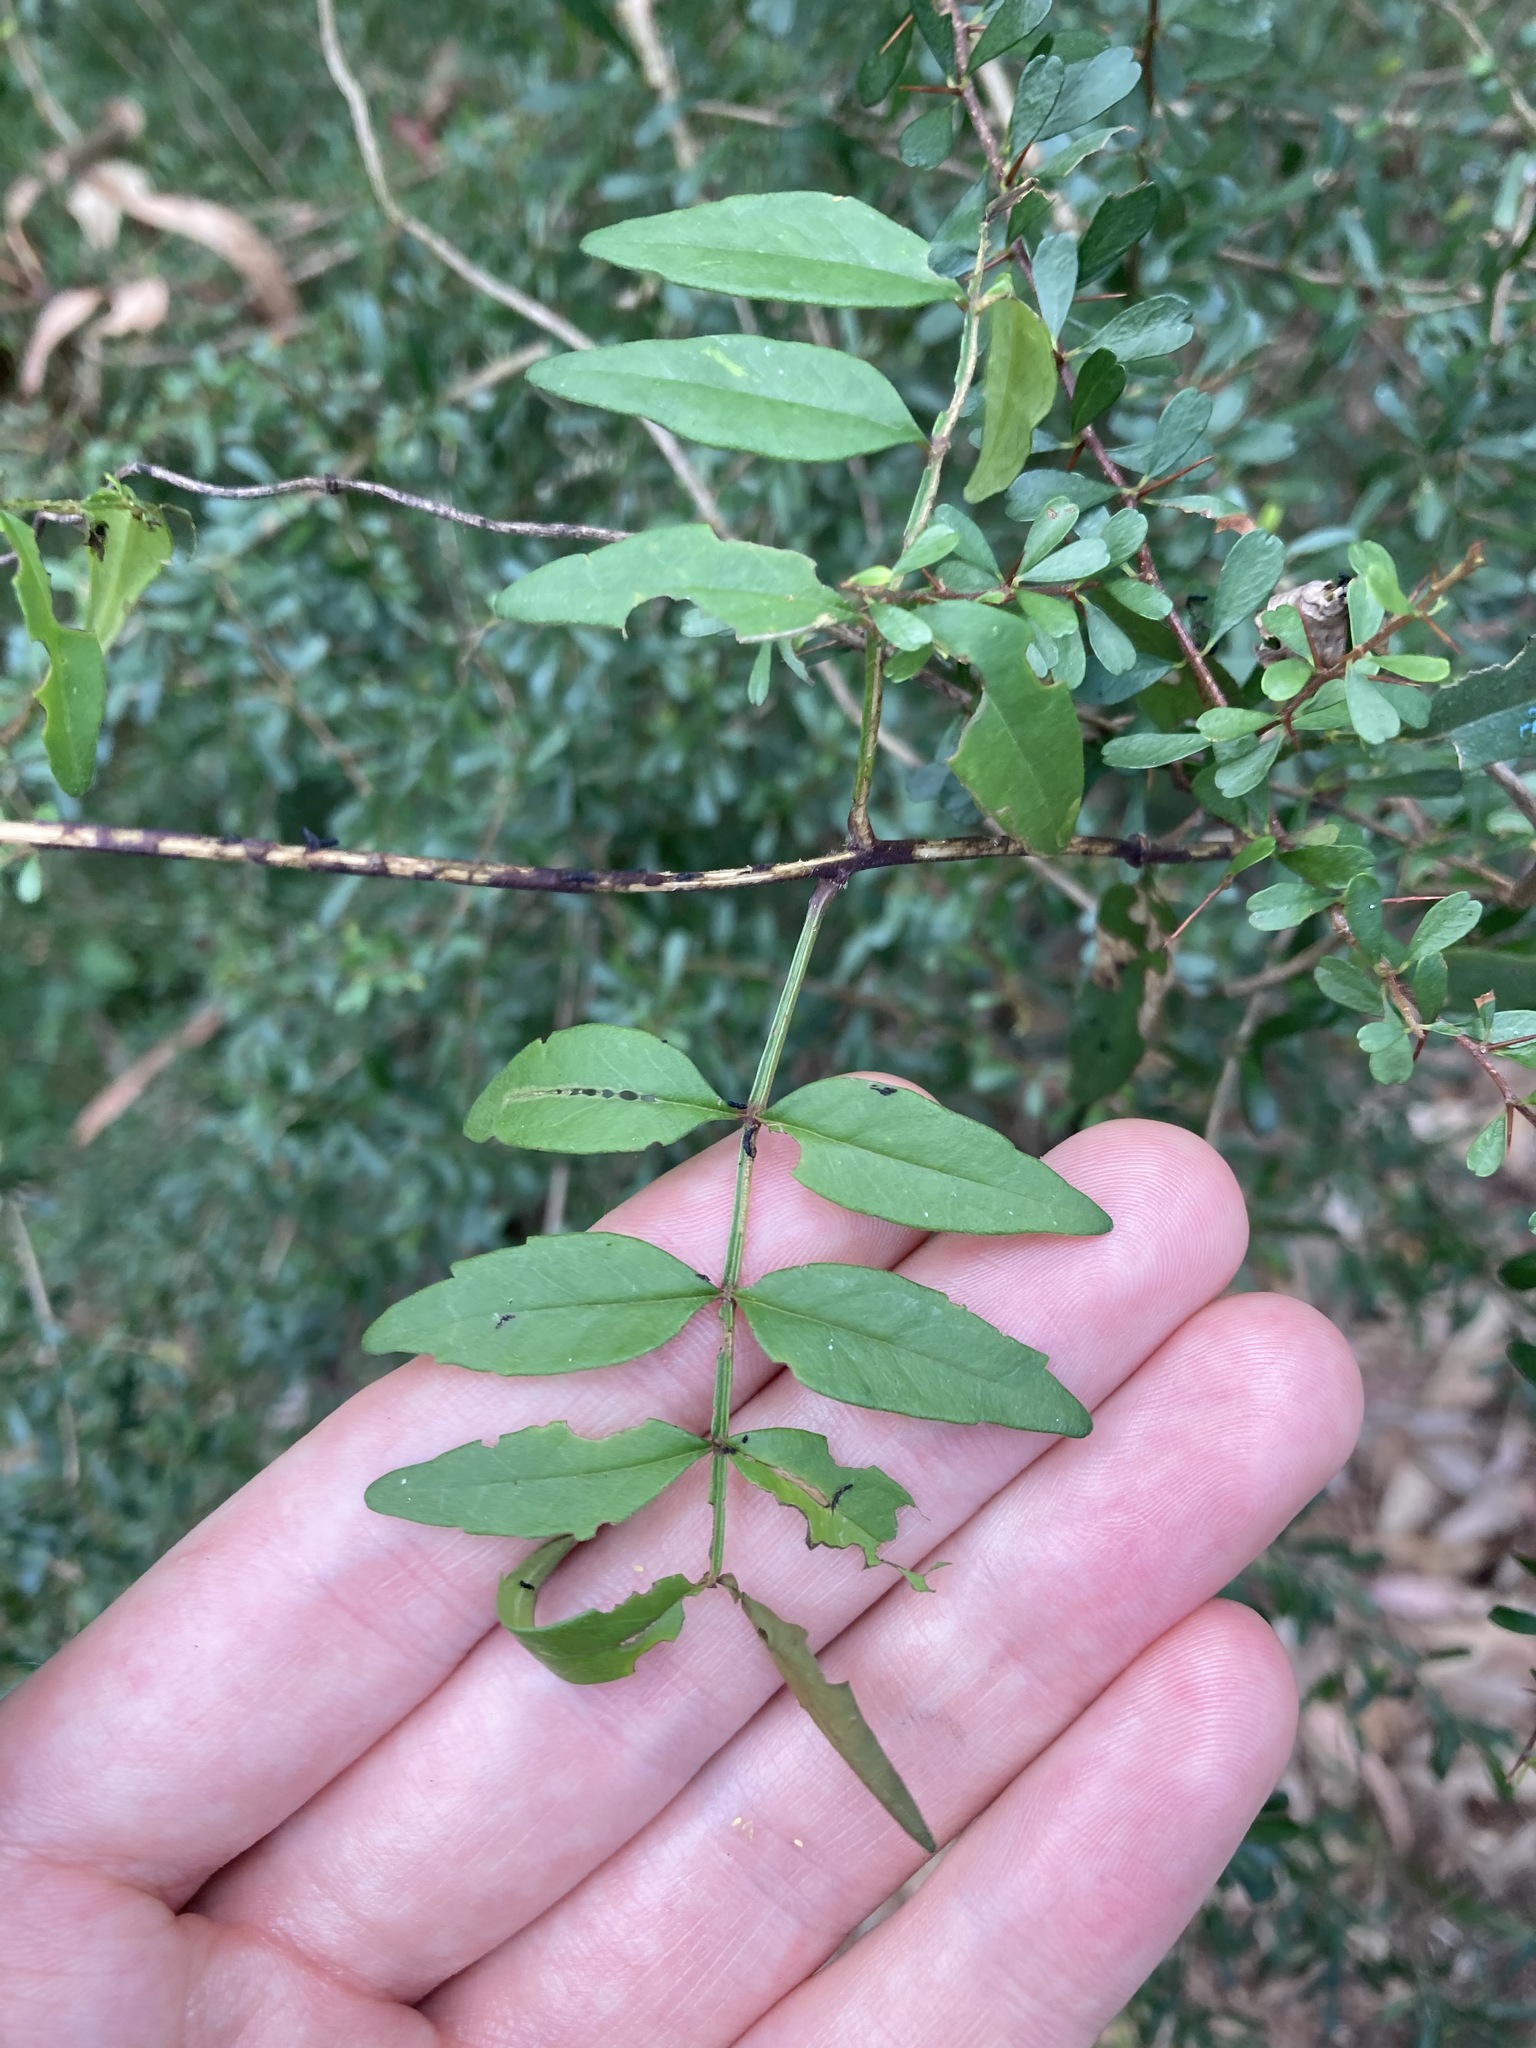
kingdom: Plantae
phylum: Tracheophyta
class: Magnoliopsida
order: Lamiales
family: Bignoniaceae
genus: Pandorea
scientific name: Pandorea pandorana
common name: Wonga-wonga-vine
